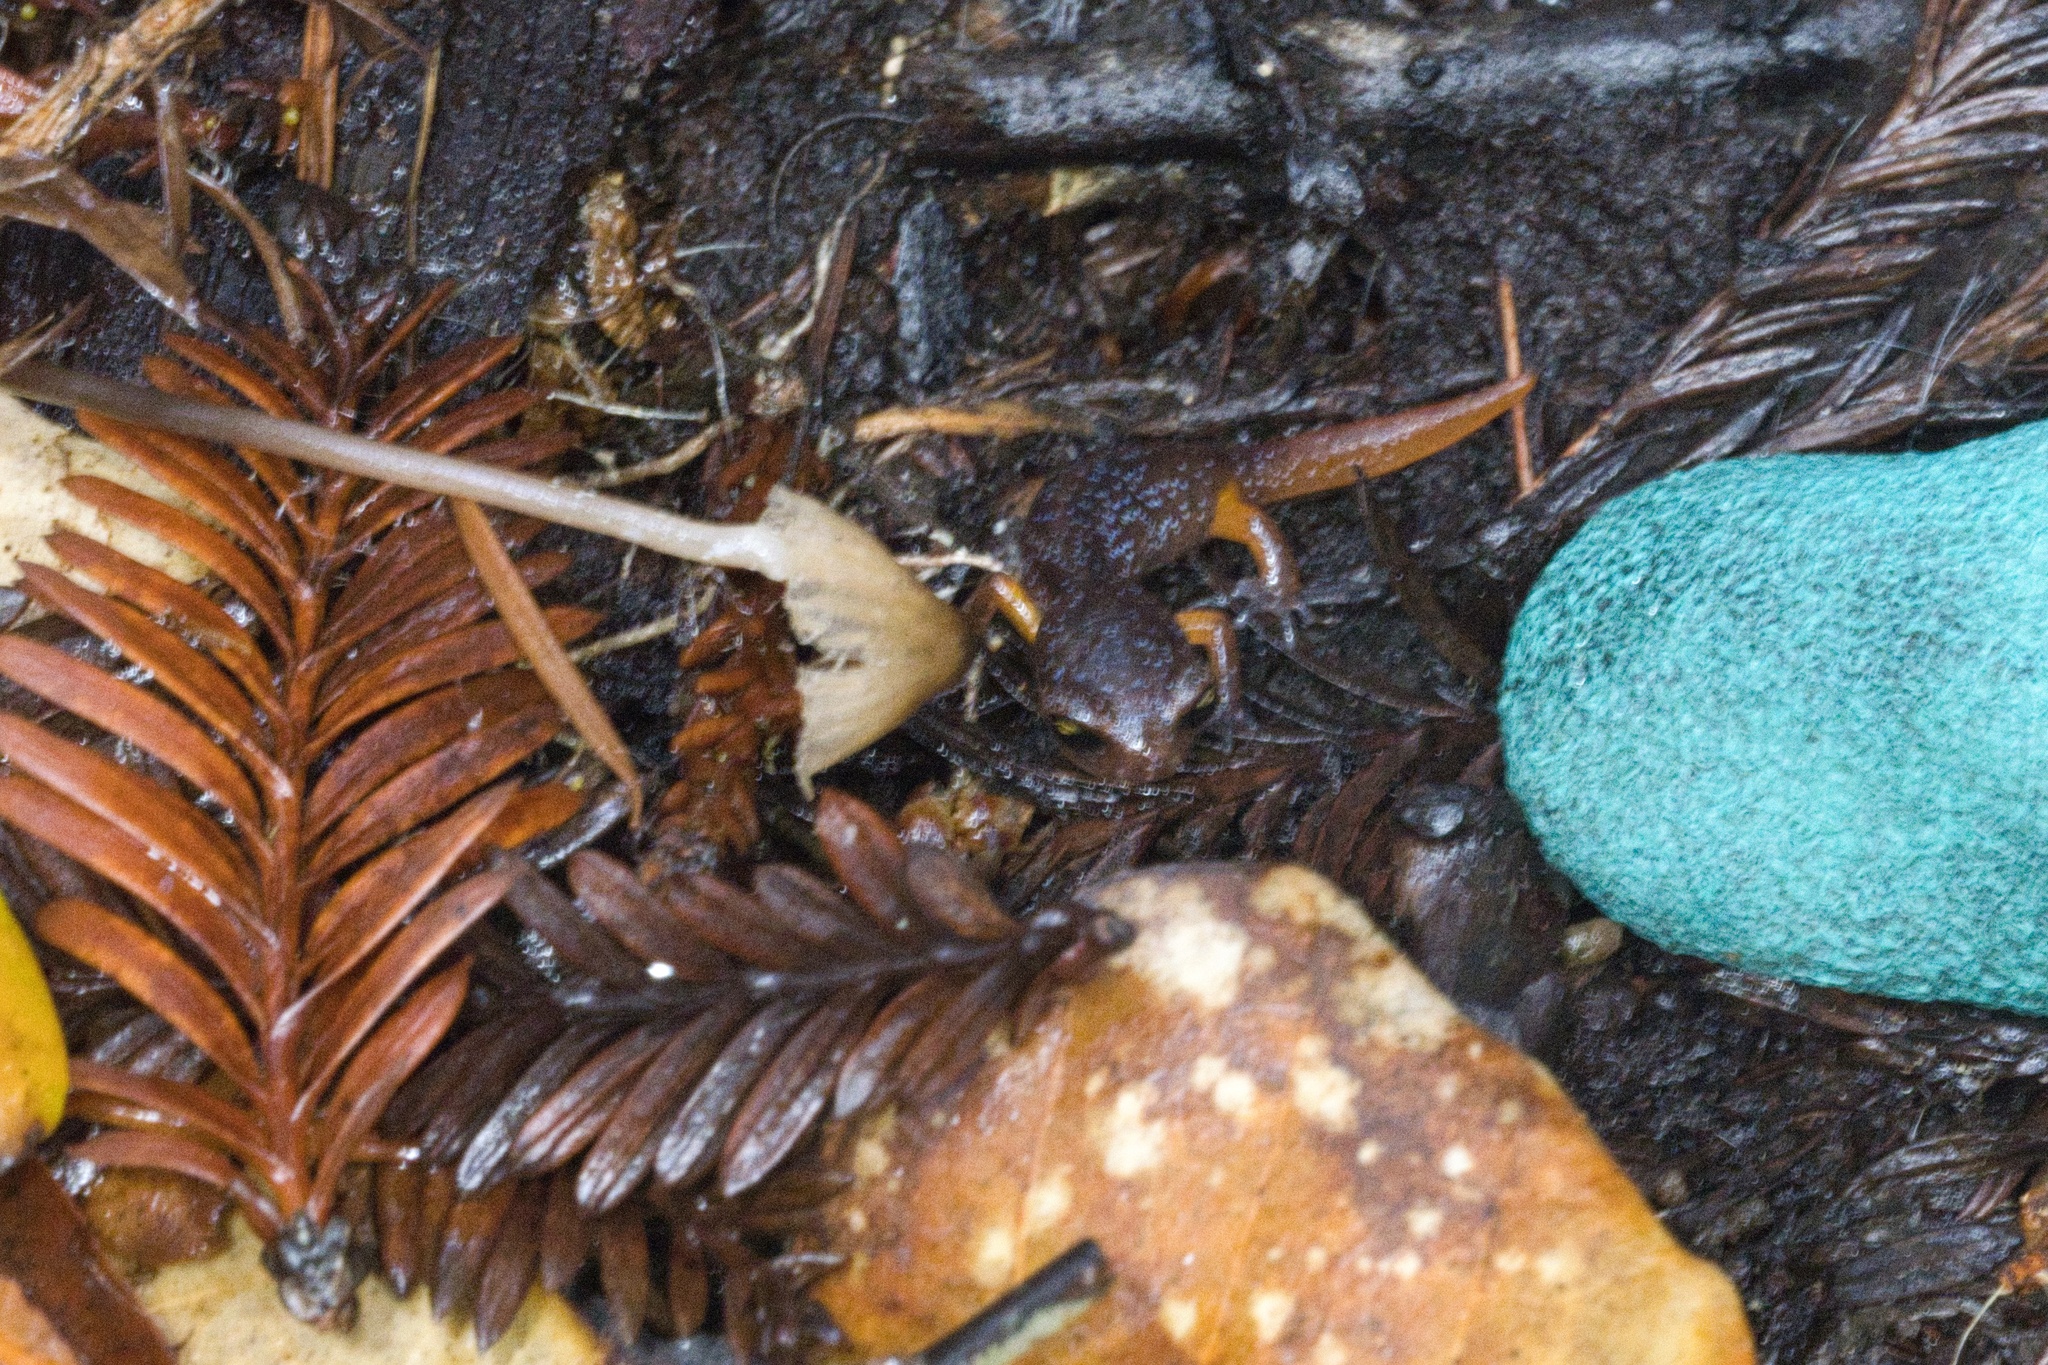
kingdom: Animalia
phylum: Chordata
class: Amphibia
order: Caudata
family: Plethodontidae
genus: Ensatina
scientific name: Ensatina eschscholtzii
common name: Ensatina
